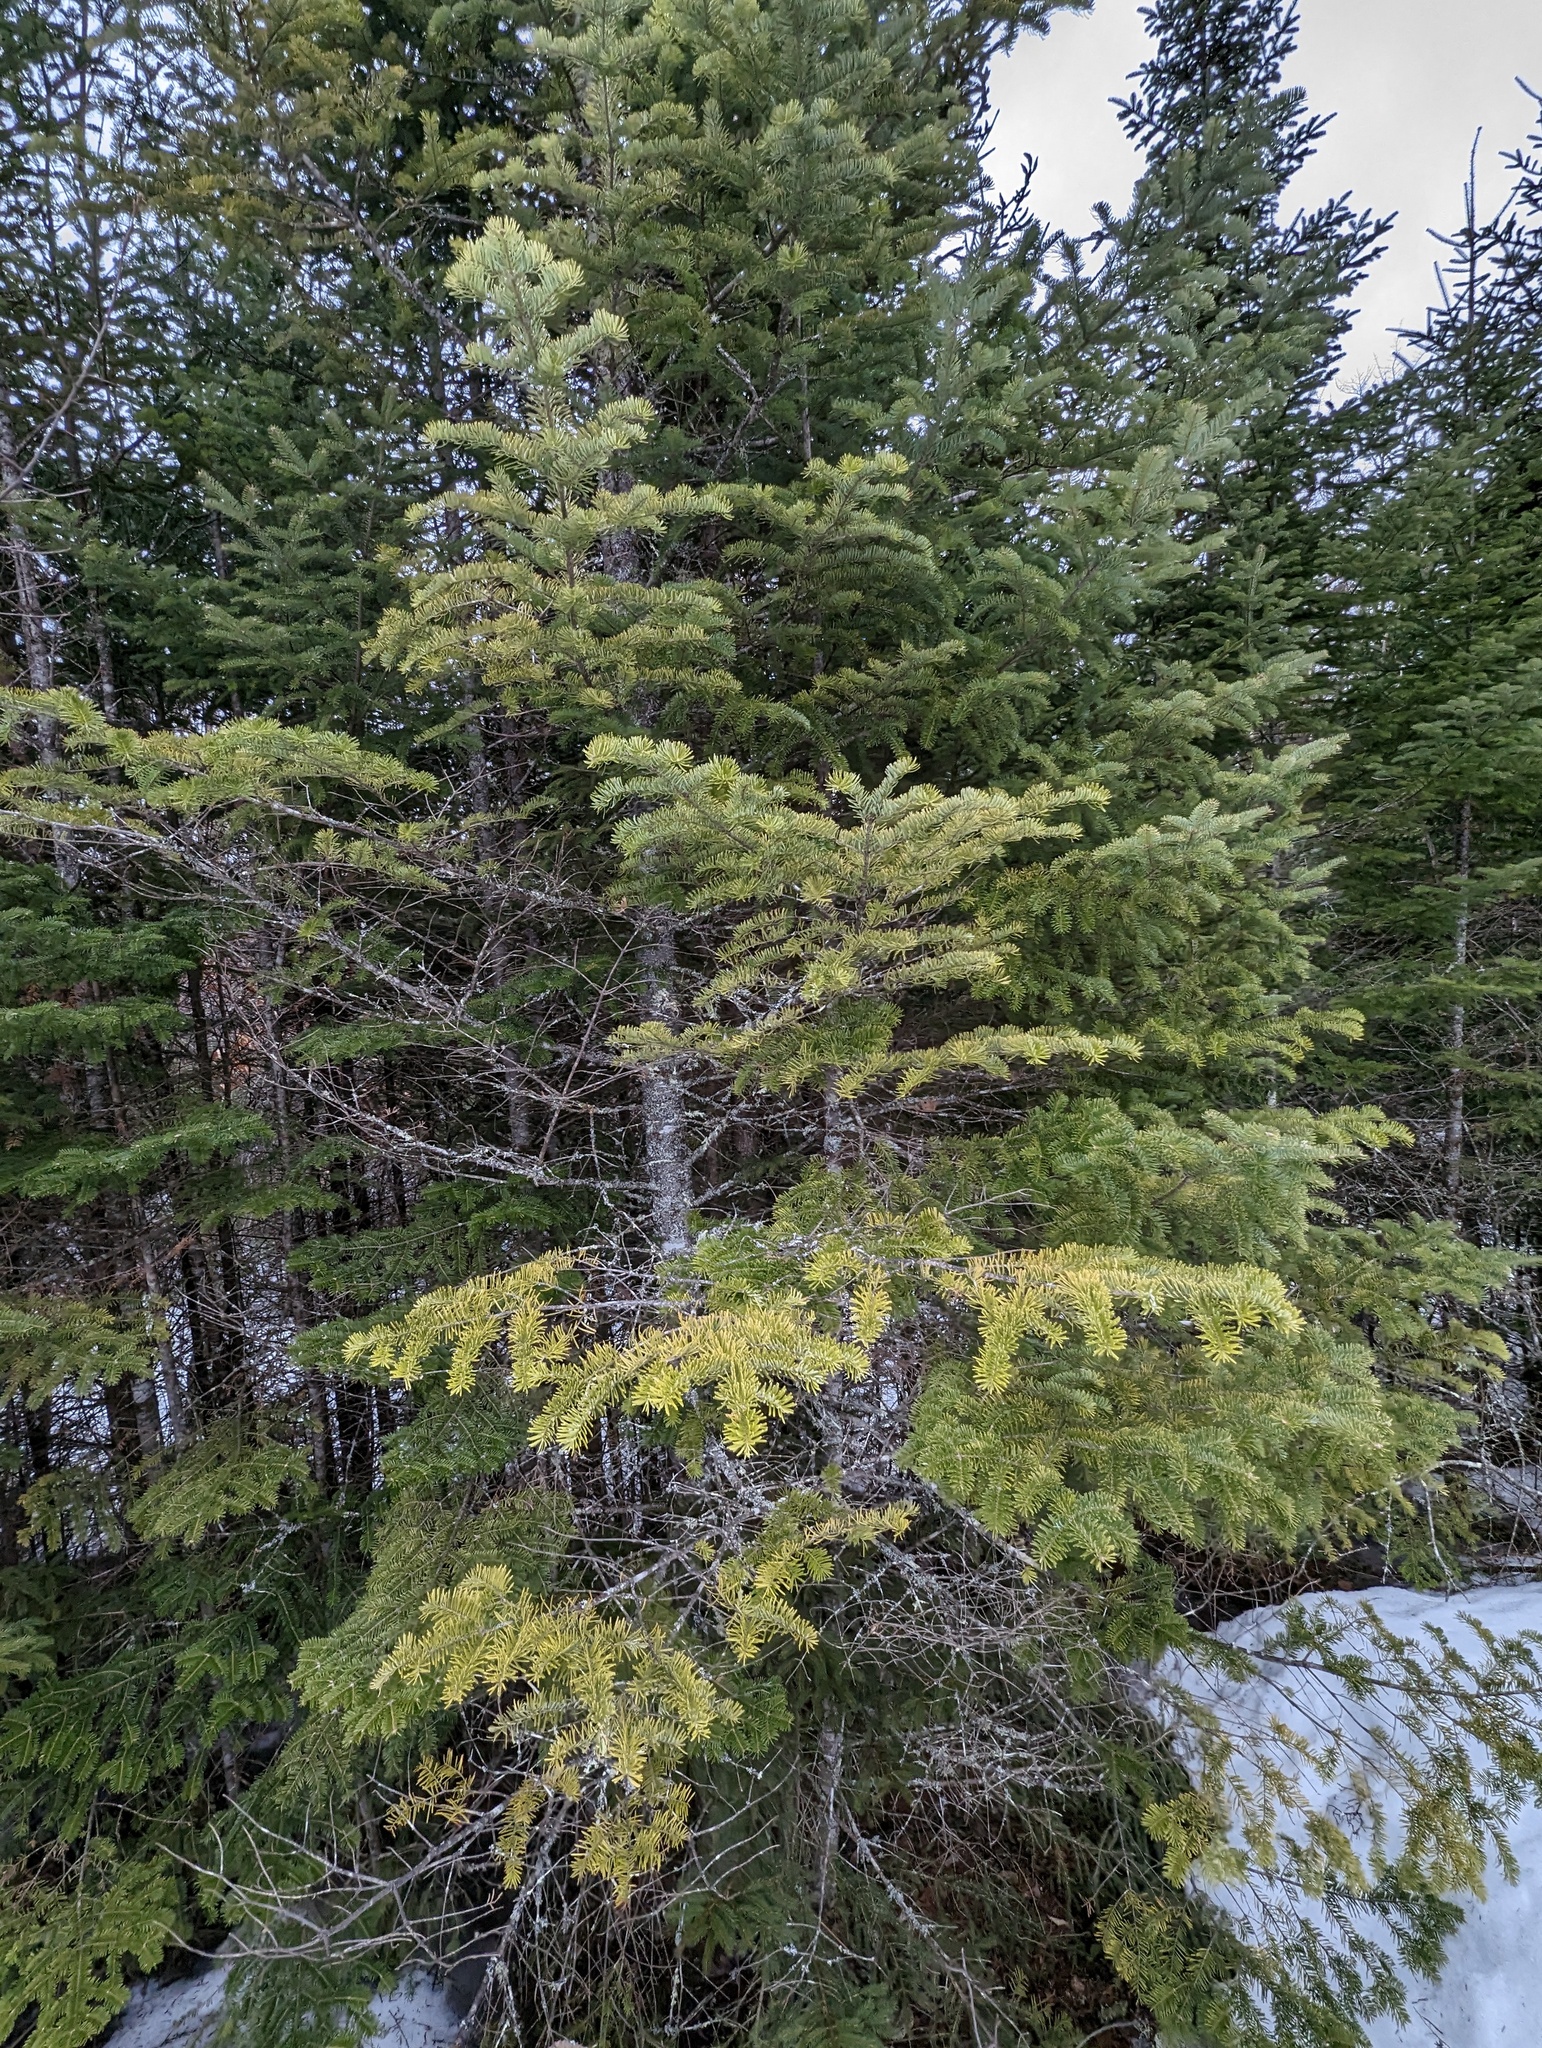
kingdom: Plantae
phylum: Tracheophyta
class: Pinopsida
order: Pinales
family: Pinaceae
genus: Abies
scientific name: Abies balsamea
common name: Balsam fir
